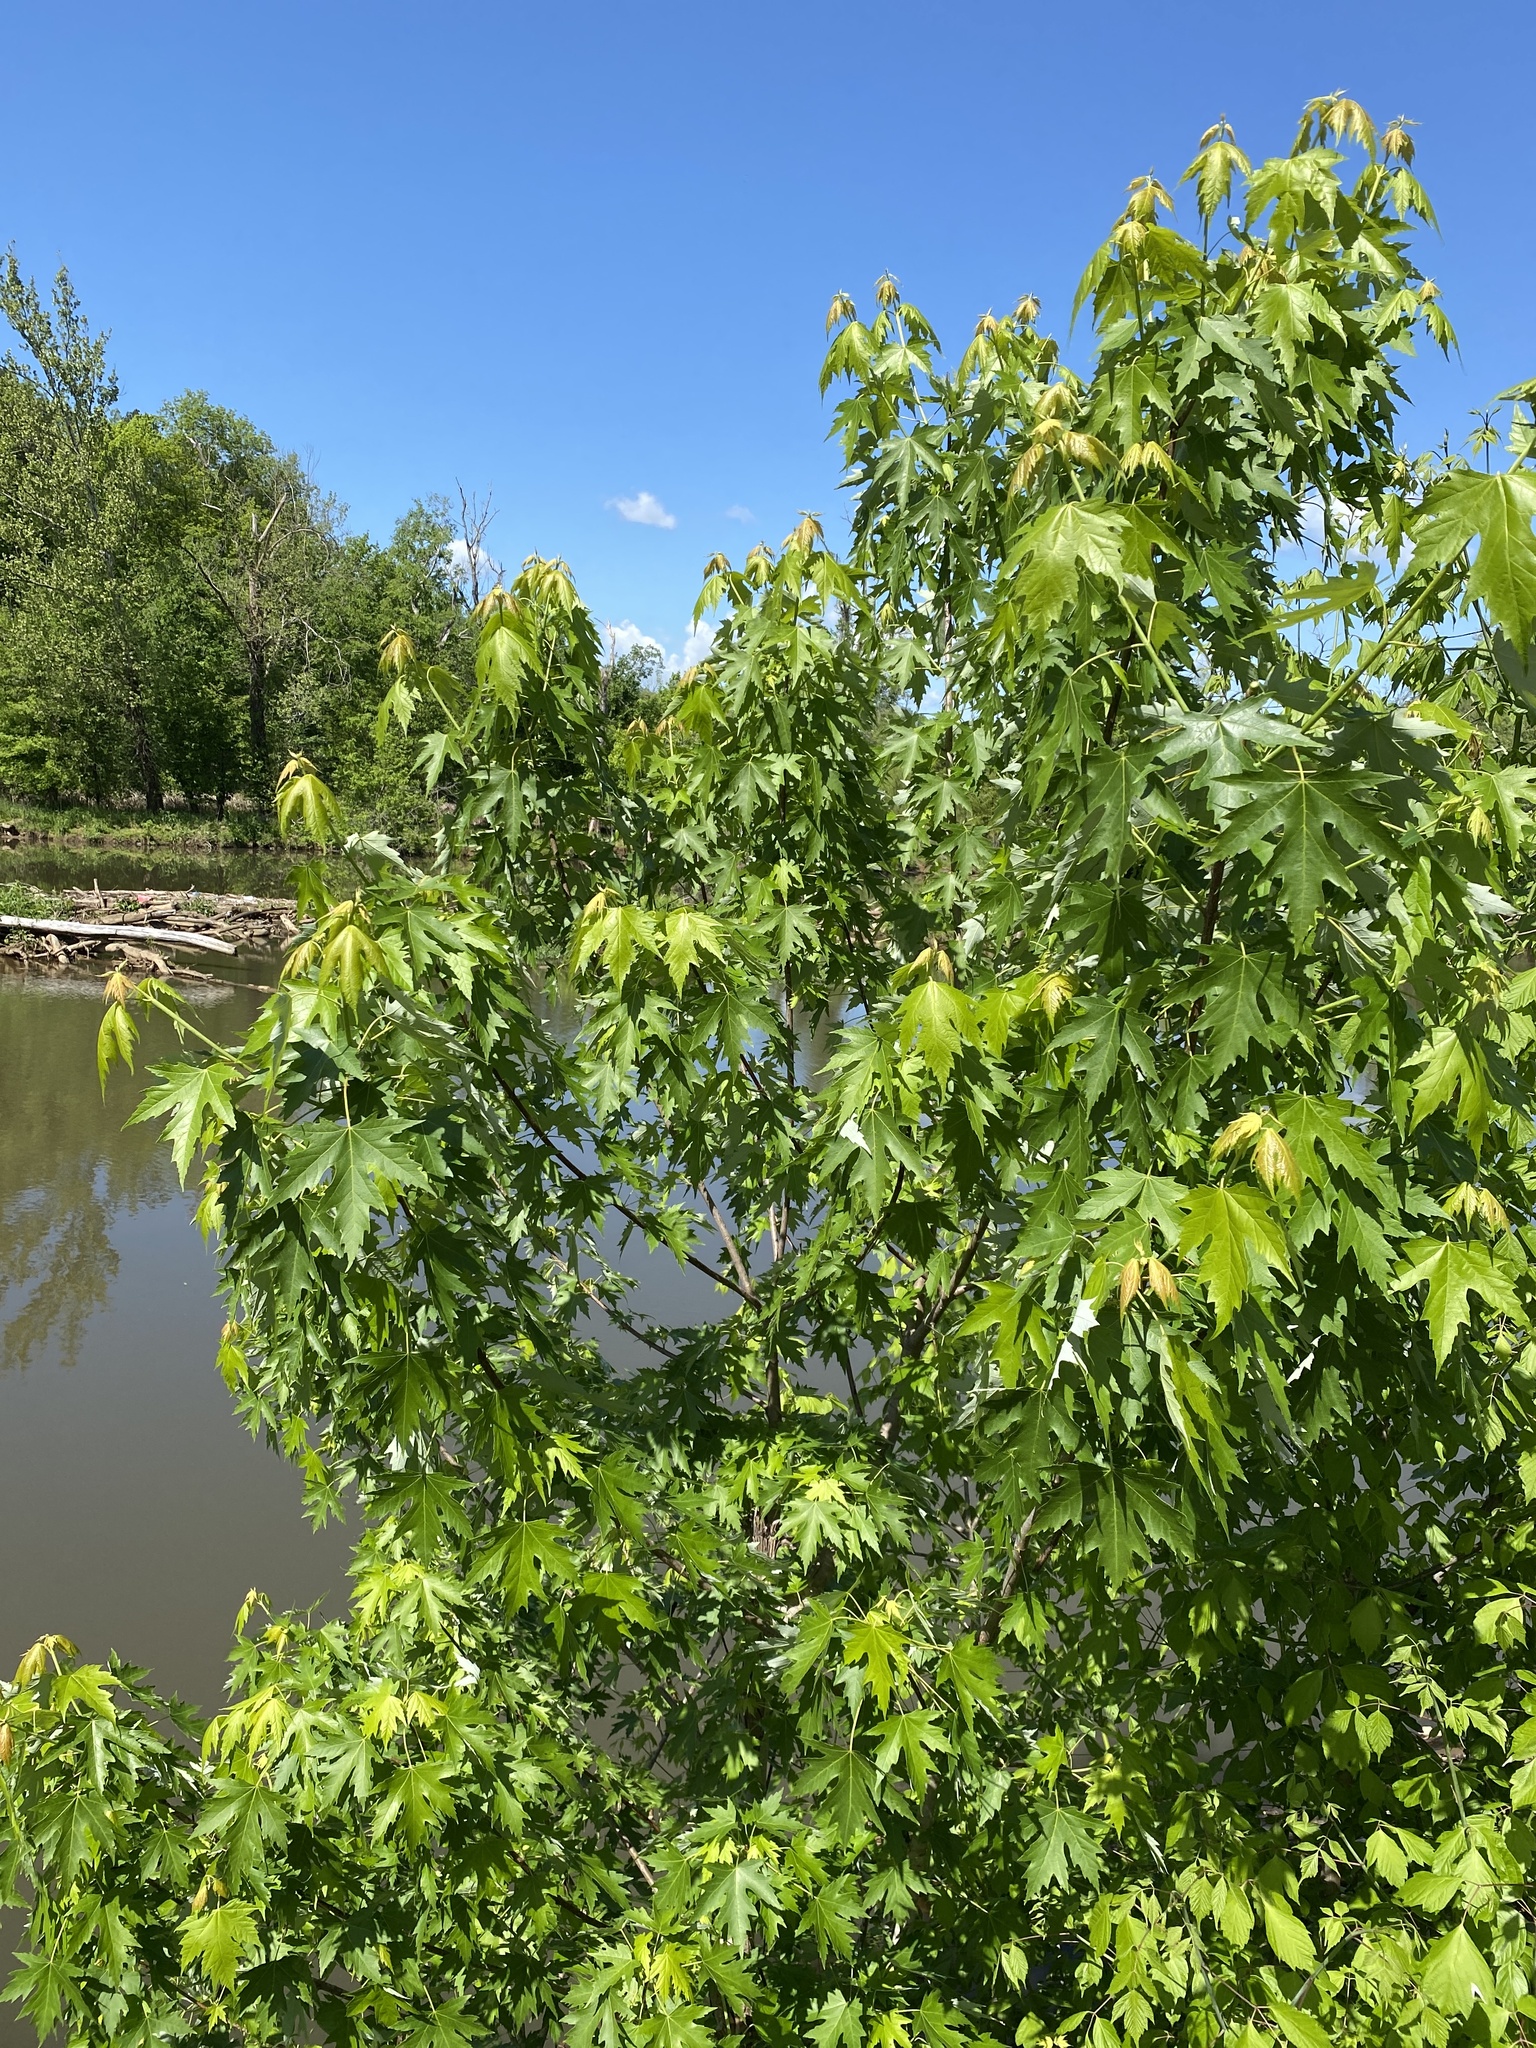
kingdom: Plantae
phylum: Tracheophyta
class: Magnoliopsida
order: Sapindales
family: Sapindaceae
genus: Acer
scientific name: Acer saccharinum
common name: Silver maple
